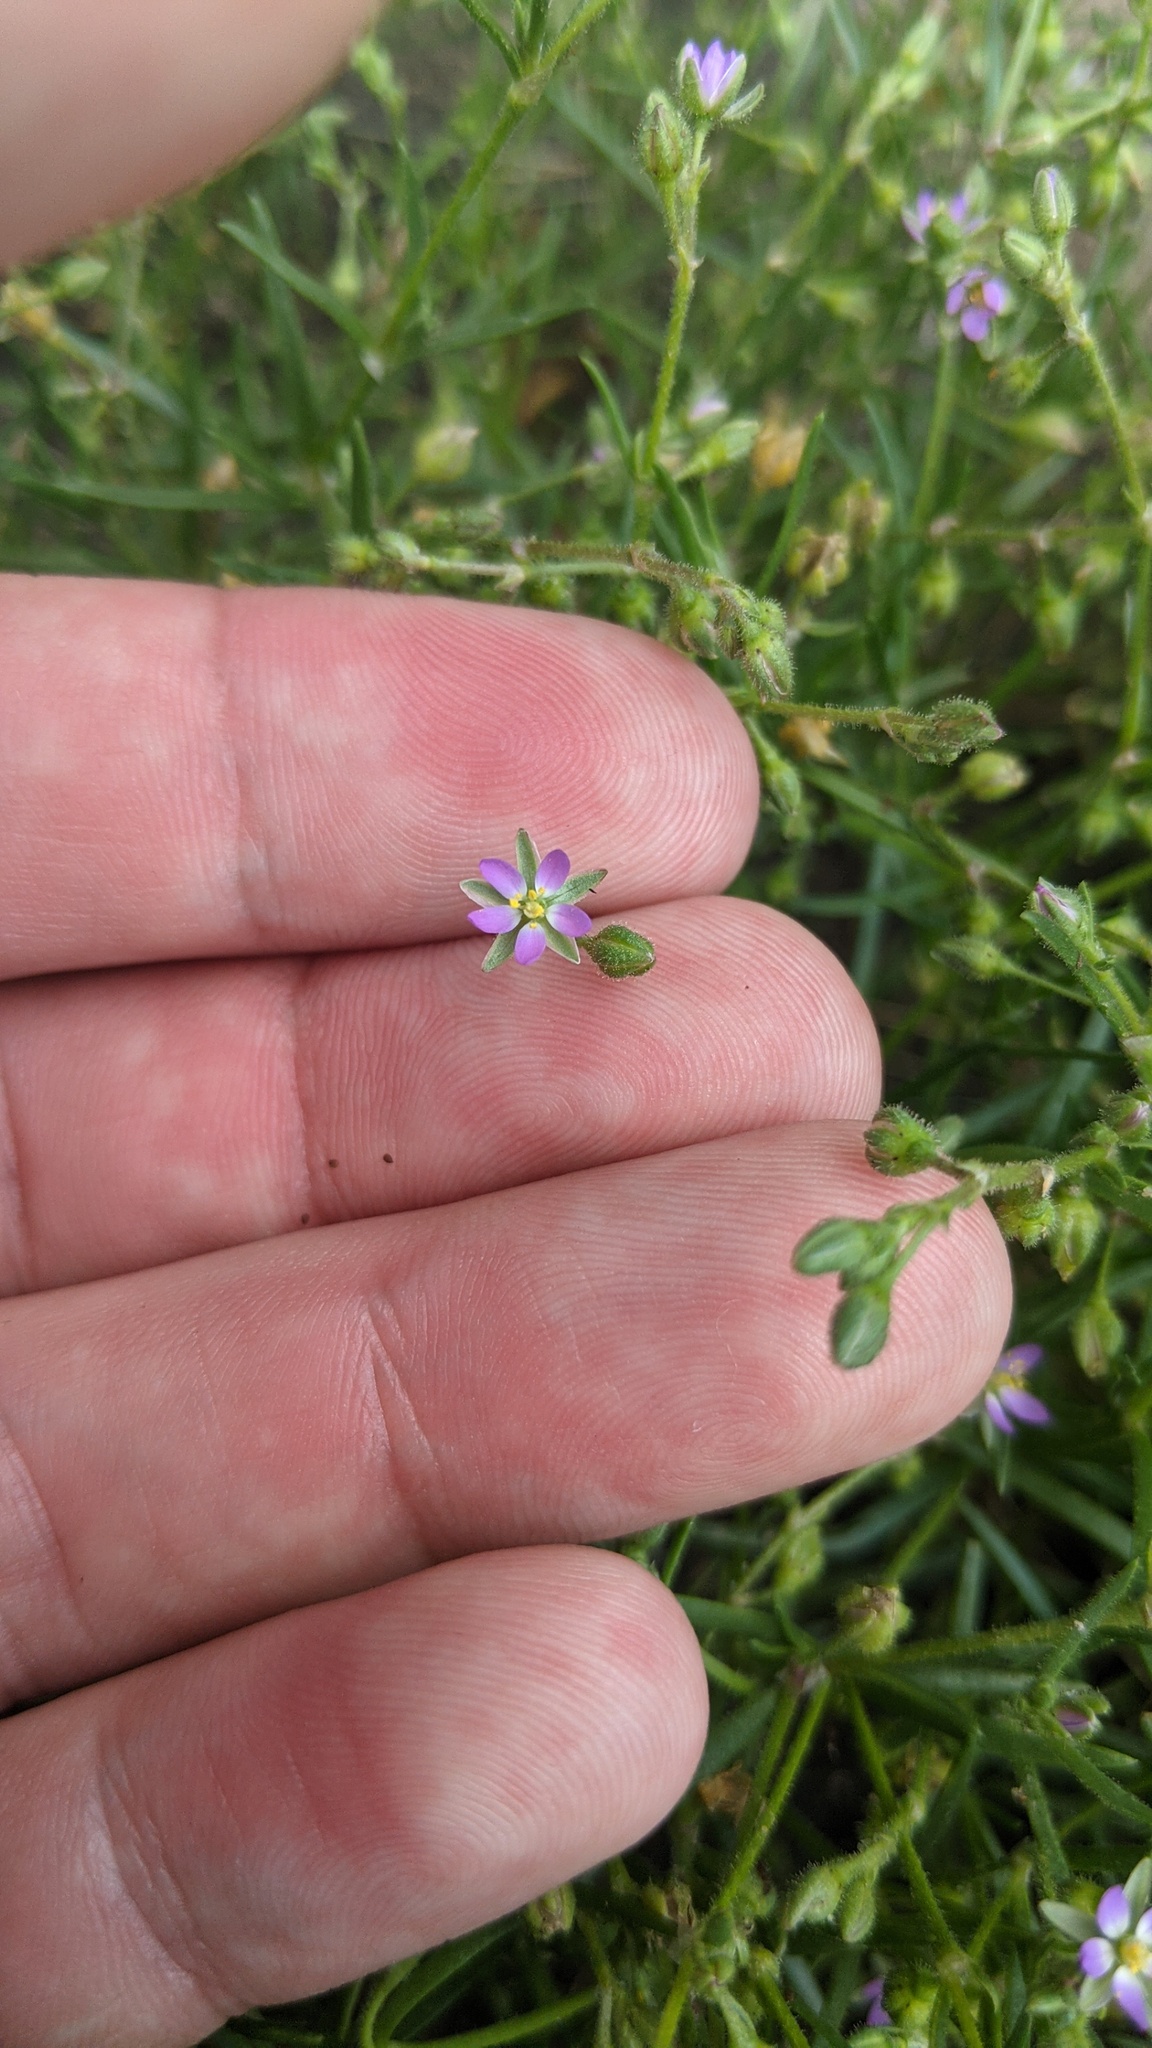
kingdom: Plantae
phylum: Tracheophyta
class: Magnoliopsida
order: Caryophyllales
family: Caryophyllaceae
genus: Spergularia
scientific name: Spergularia marina
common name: Lesser sea-spurrey
